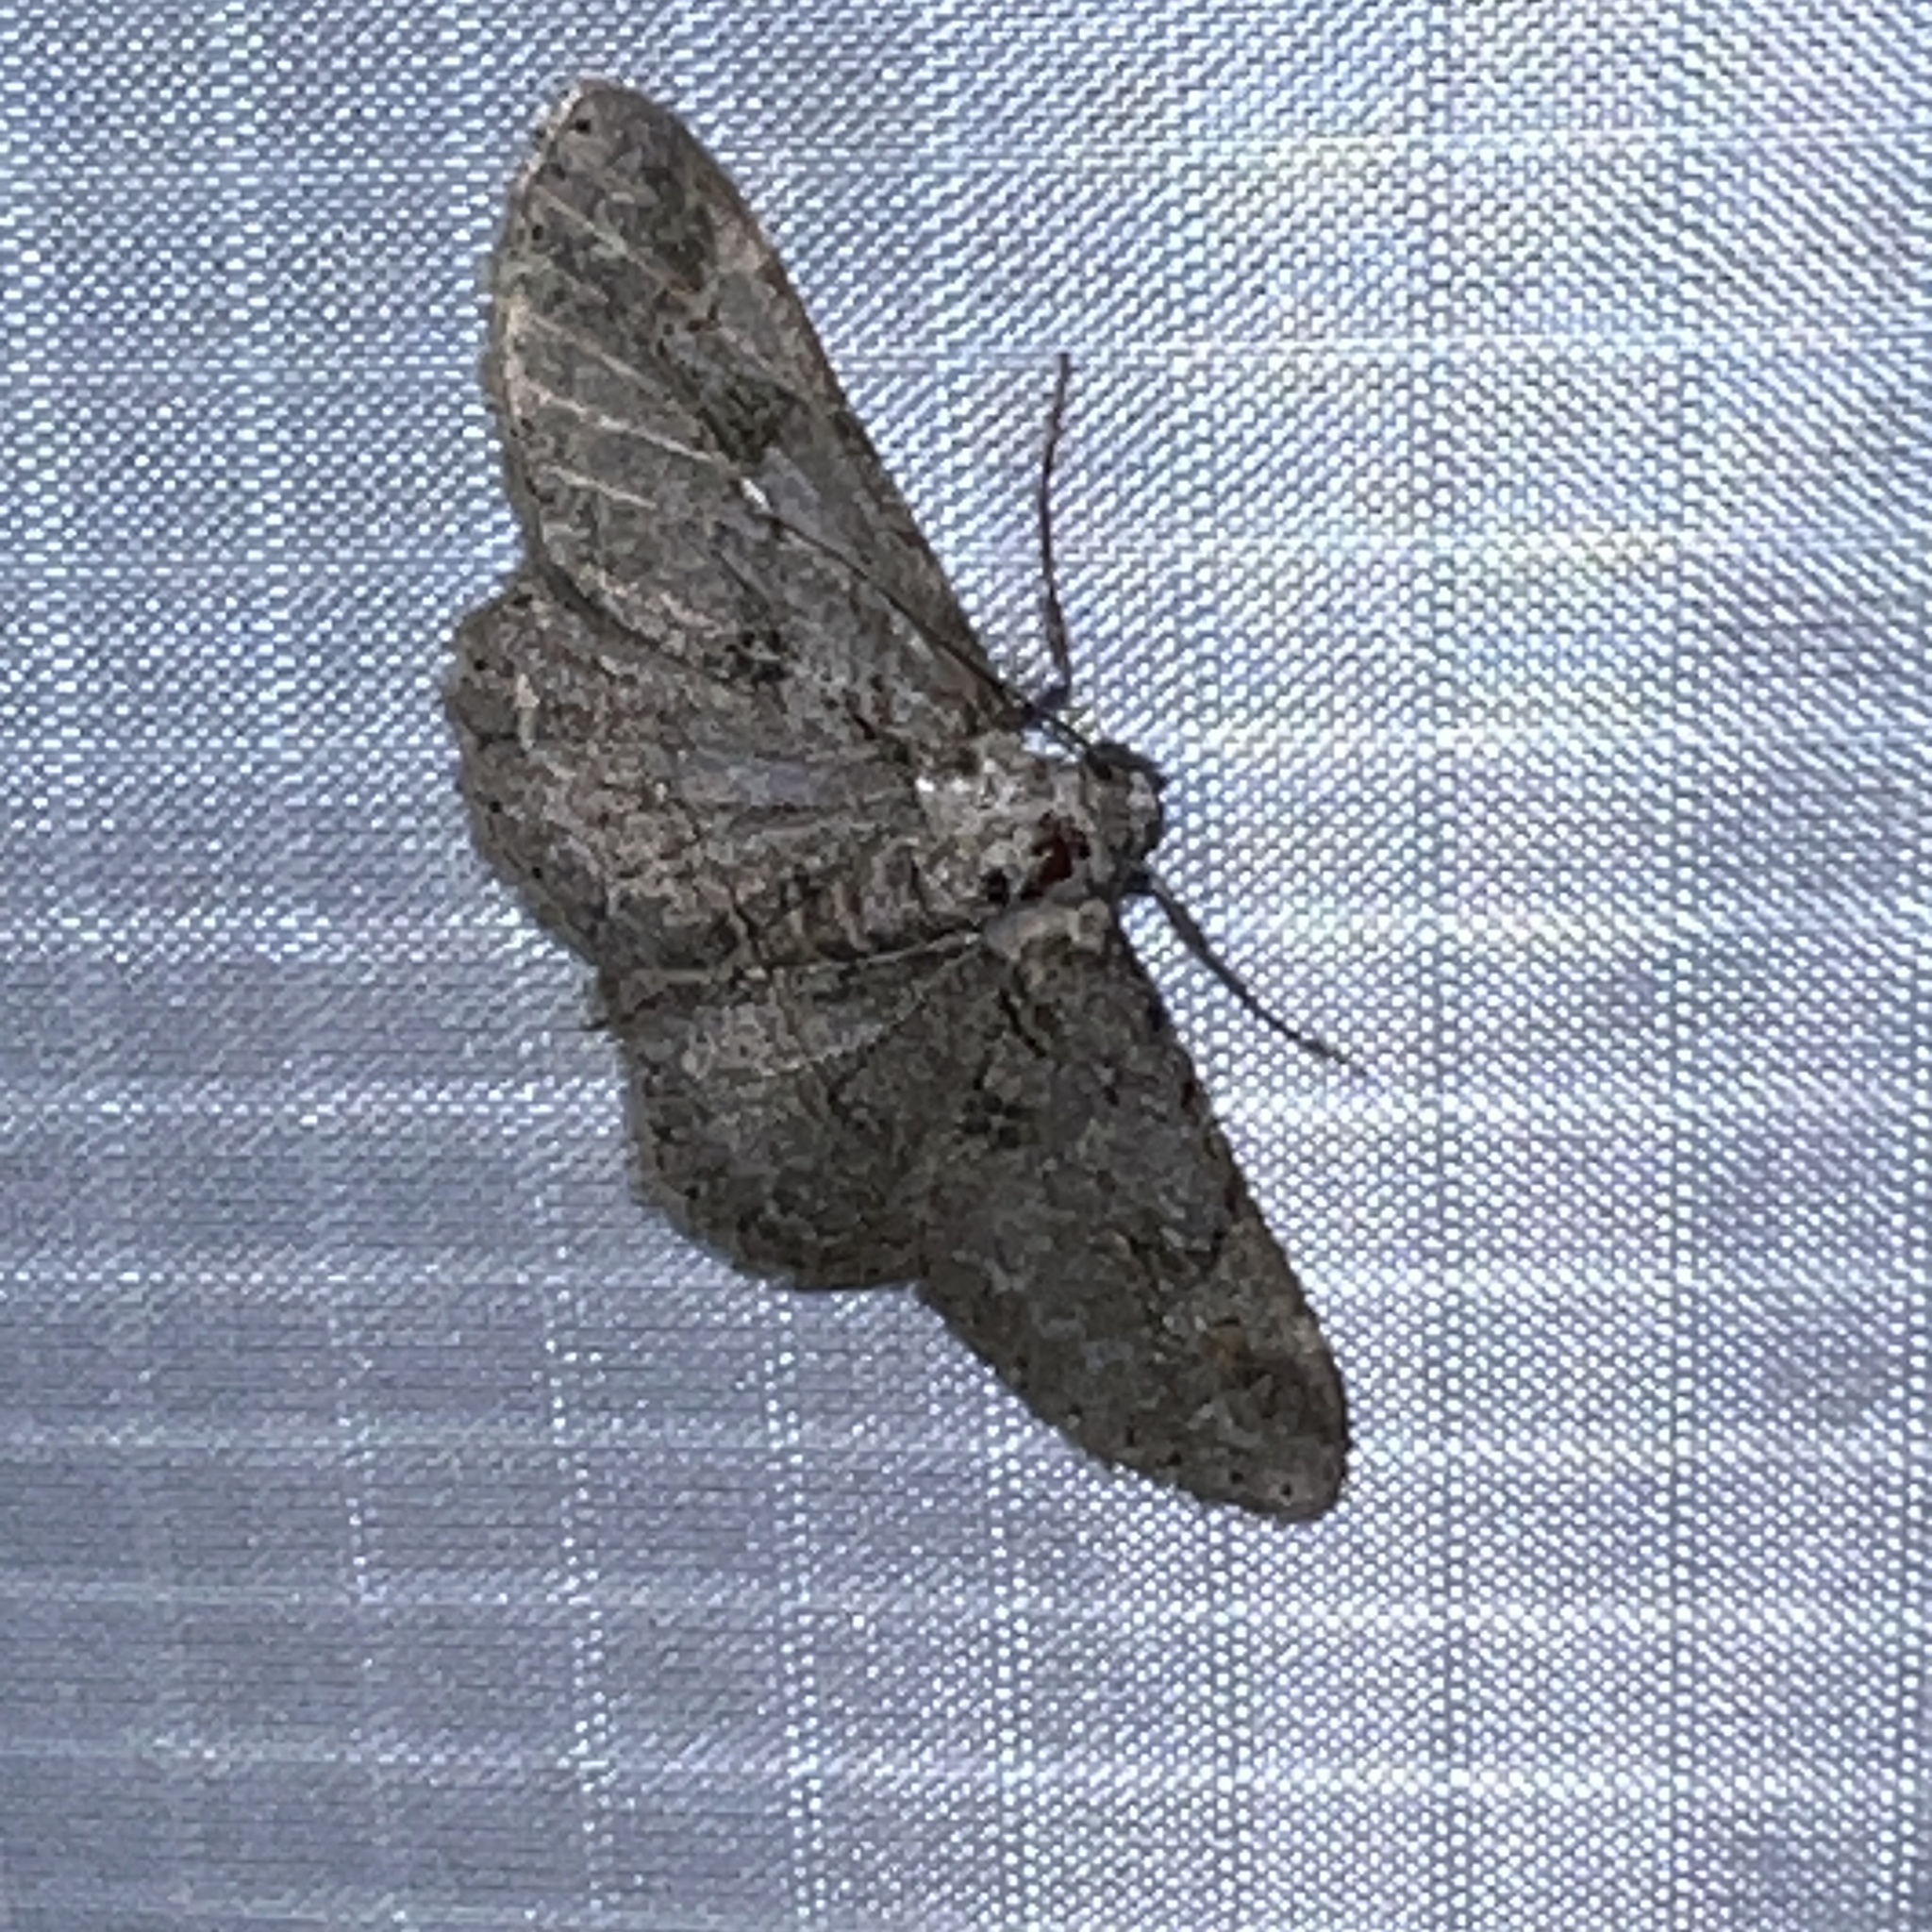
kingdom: Animalia
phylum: Arthropoda
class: Insecta
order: Lepidoptera
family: Geometridae
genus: Iridopsis
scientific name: Iridopsis fragilaria
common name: Moth
